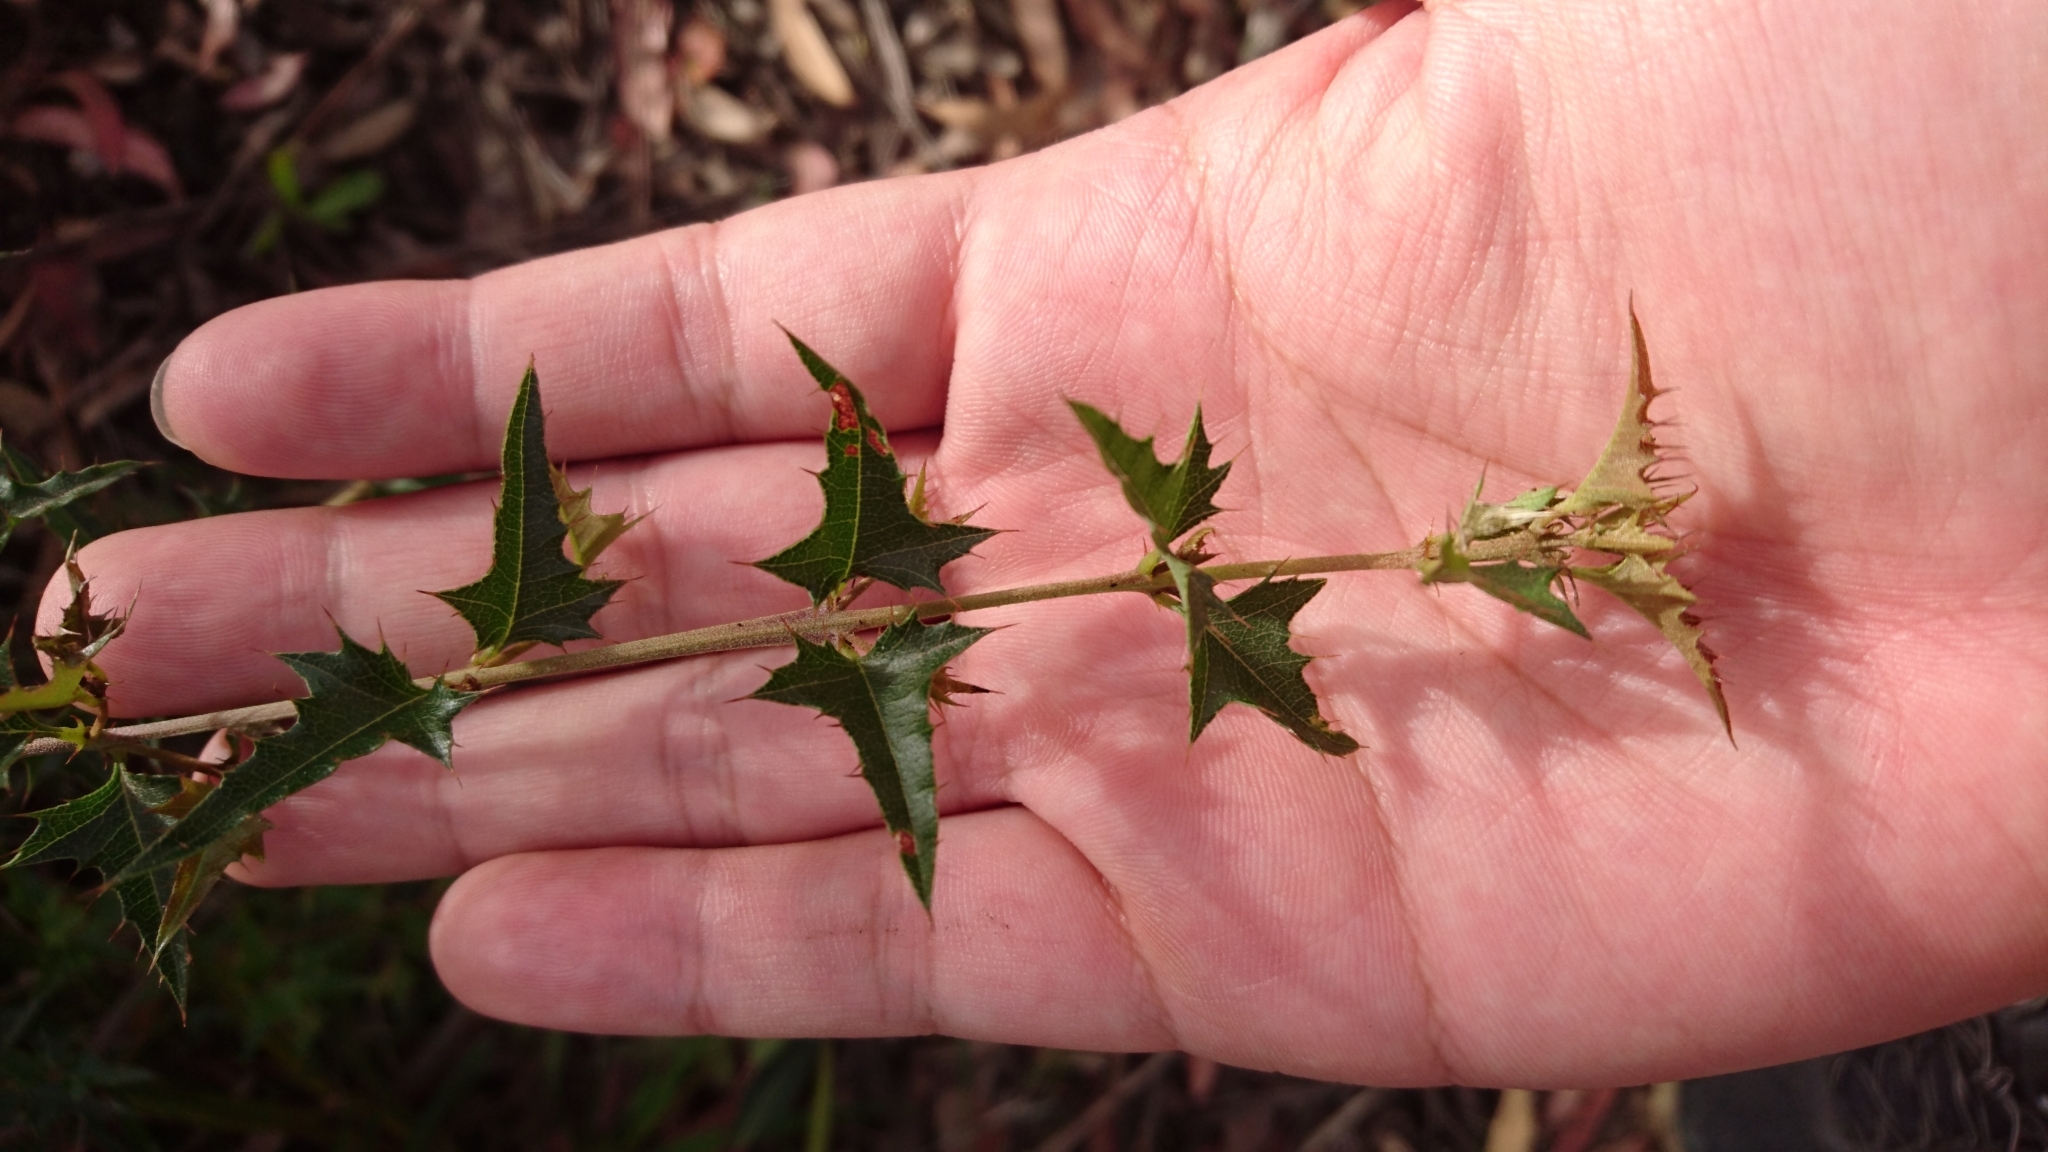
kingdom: Plantae
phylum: Tracheophyta
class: Magnoliopsida
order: Fabales
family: Fabaceae
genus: Podolobium
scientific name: Podolobium ilicifolium
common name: Native holly
